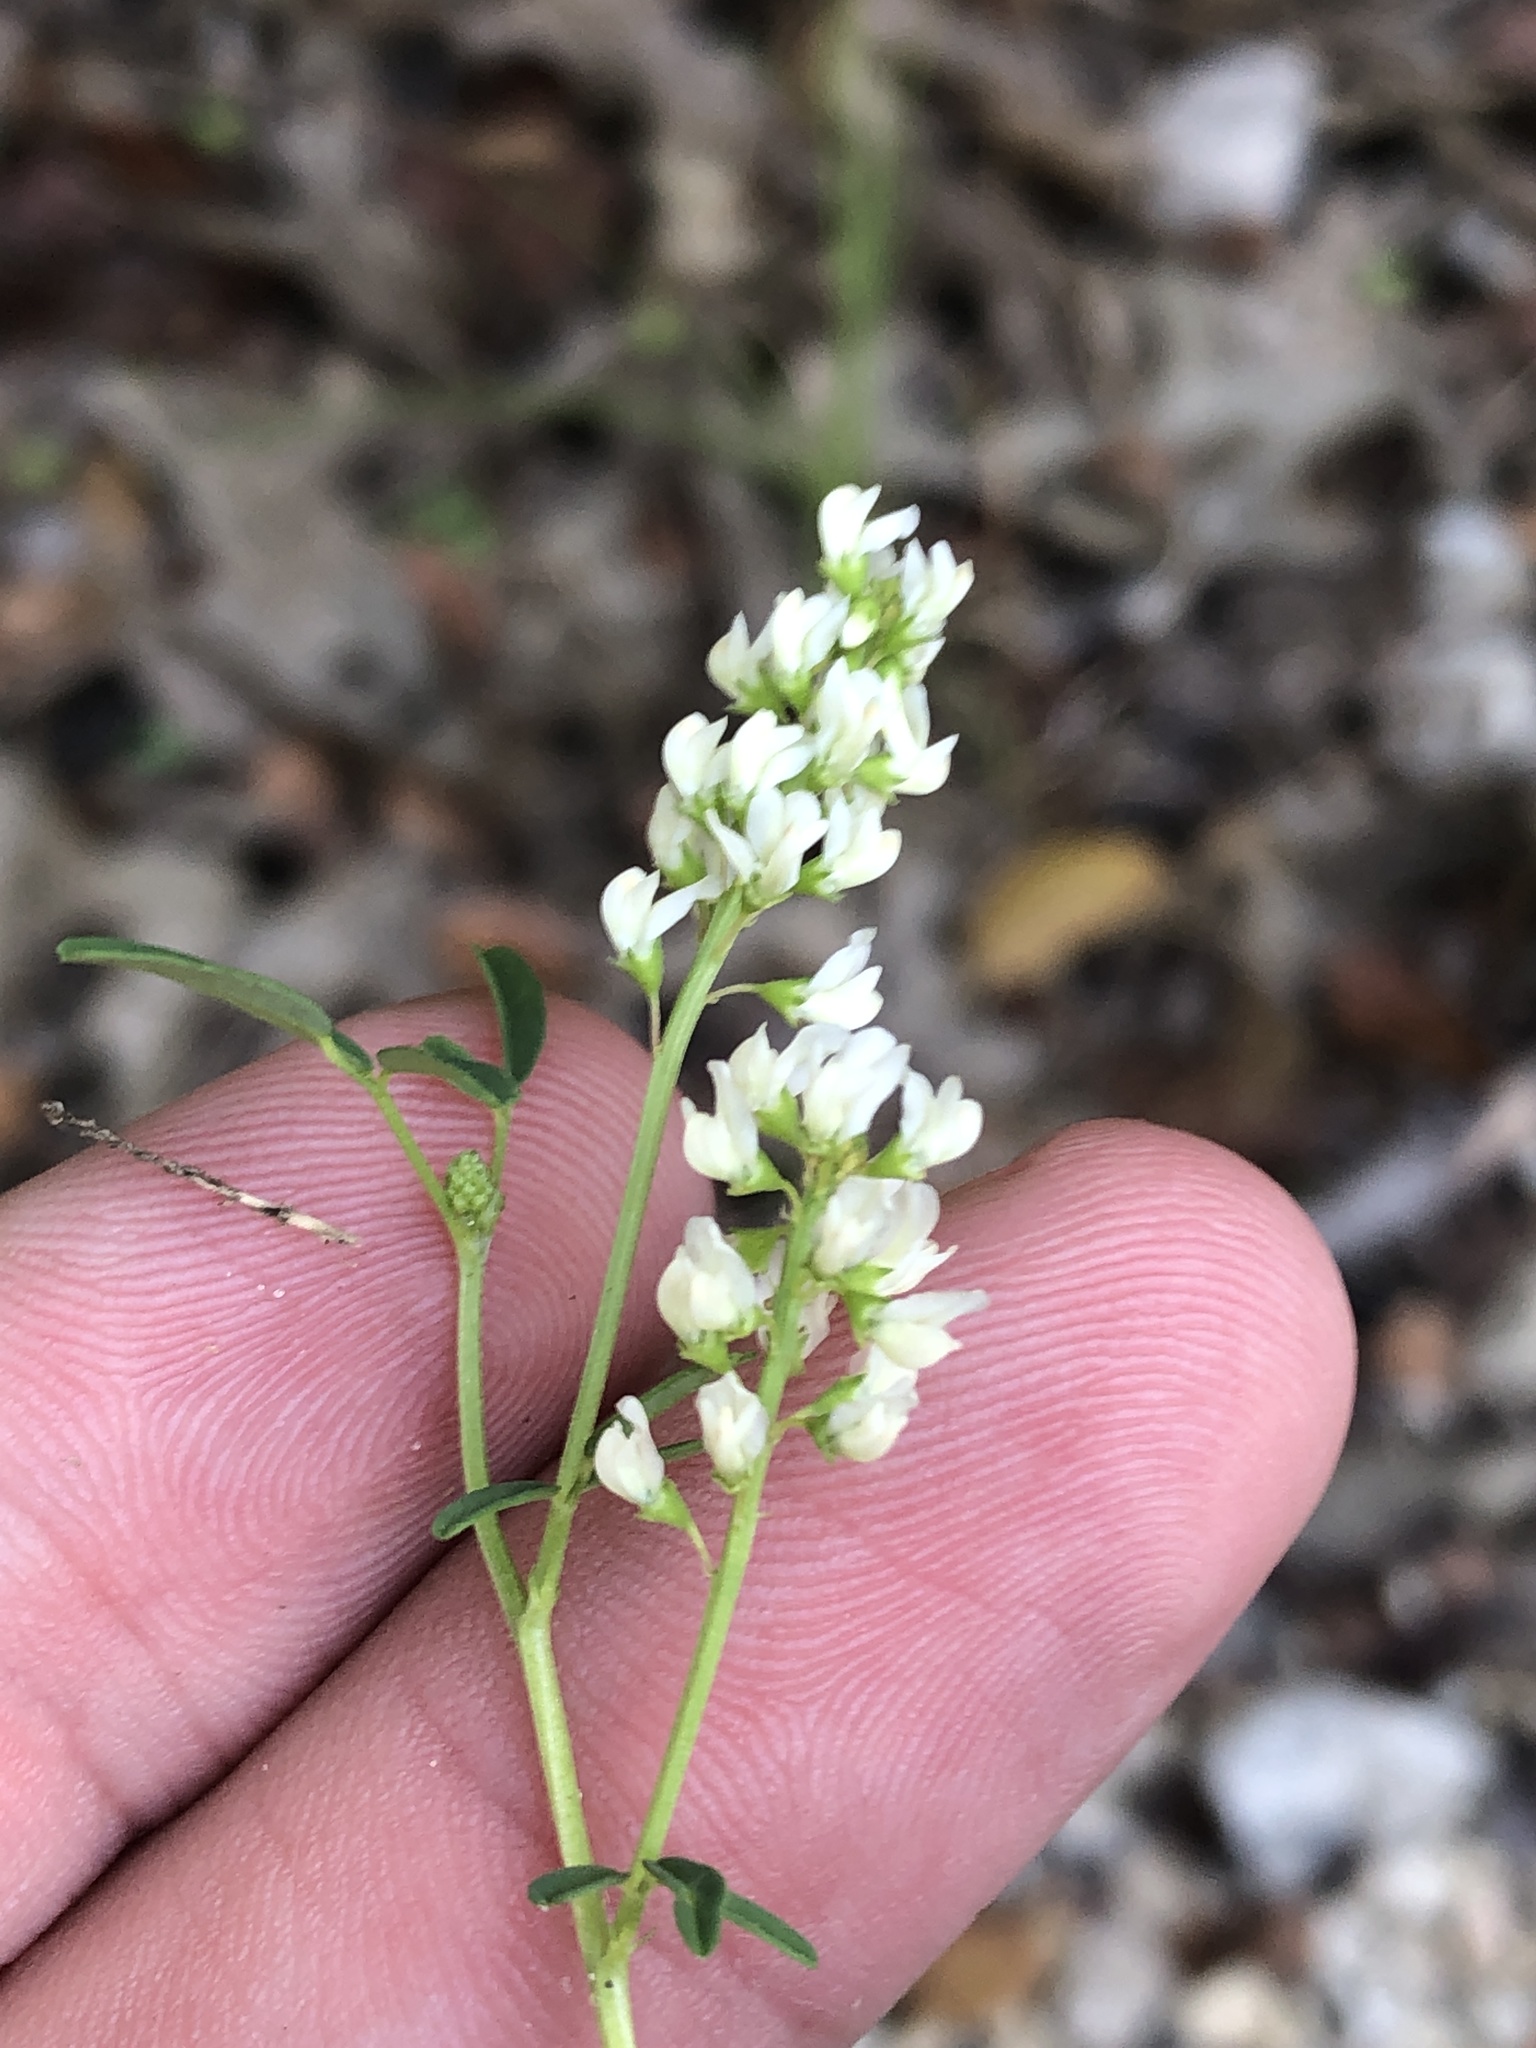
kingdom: Plantae
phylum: Tracheophyta
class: Magnoliopsida
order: Fabales
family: Fabaceae
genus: Melilotus
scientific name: Melilotus albus
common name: White melilot
